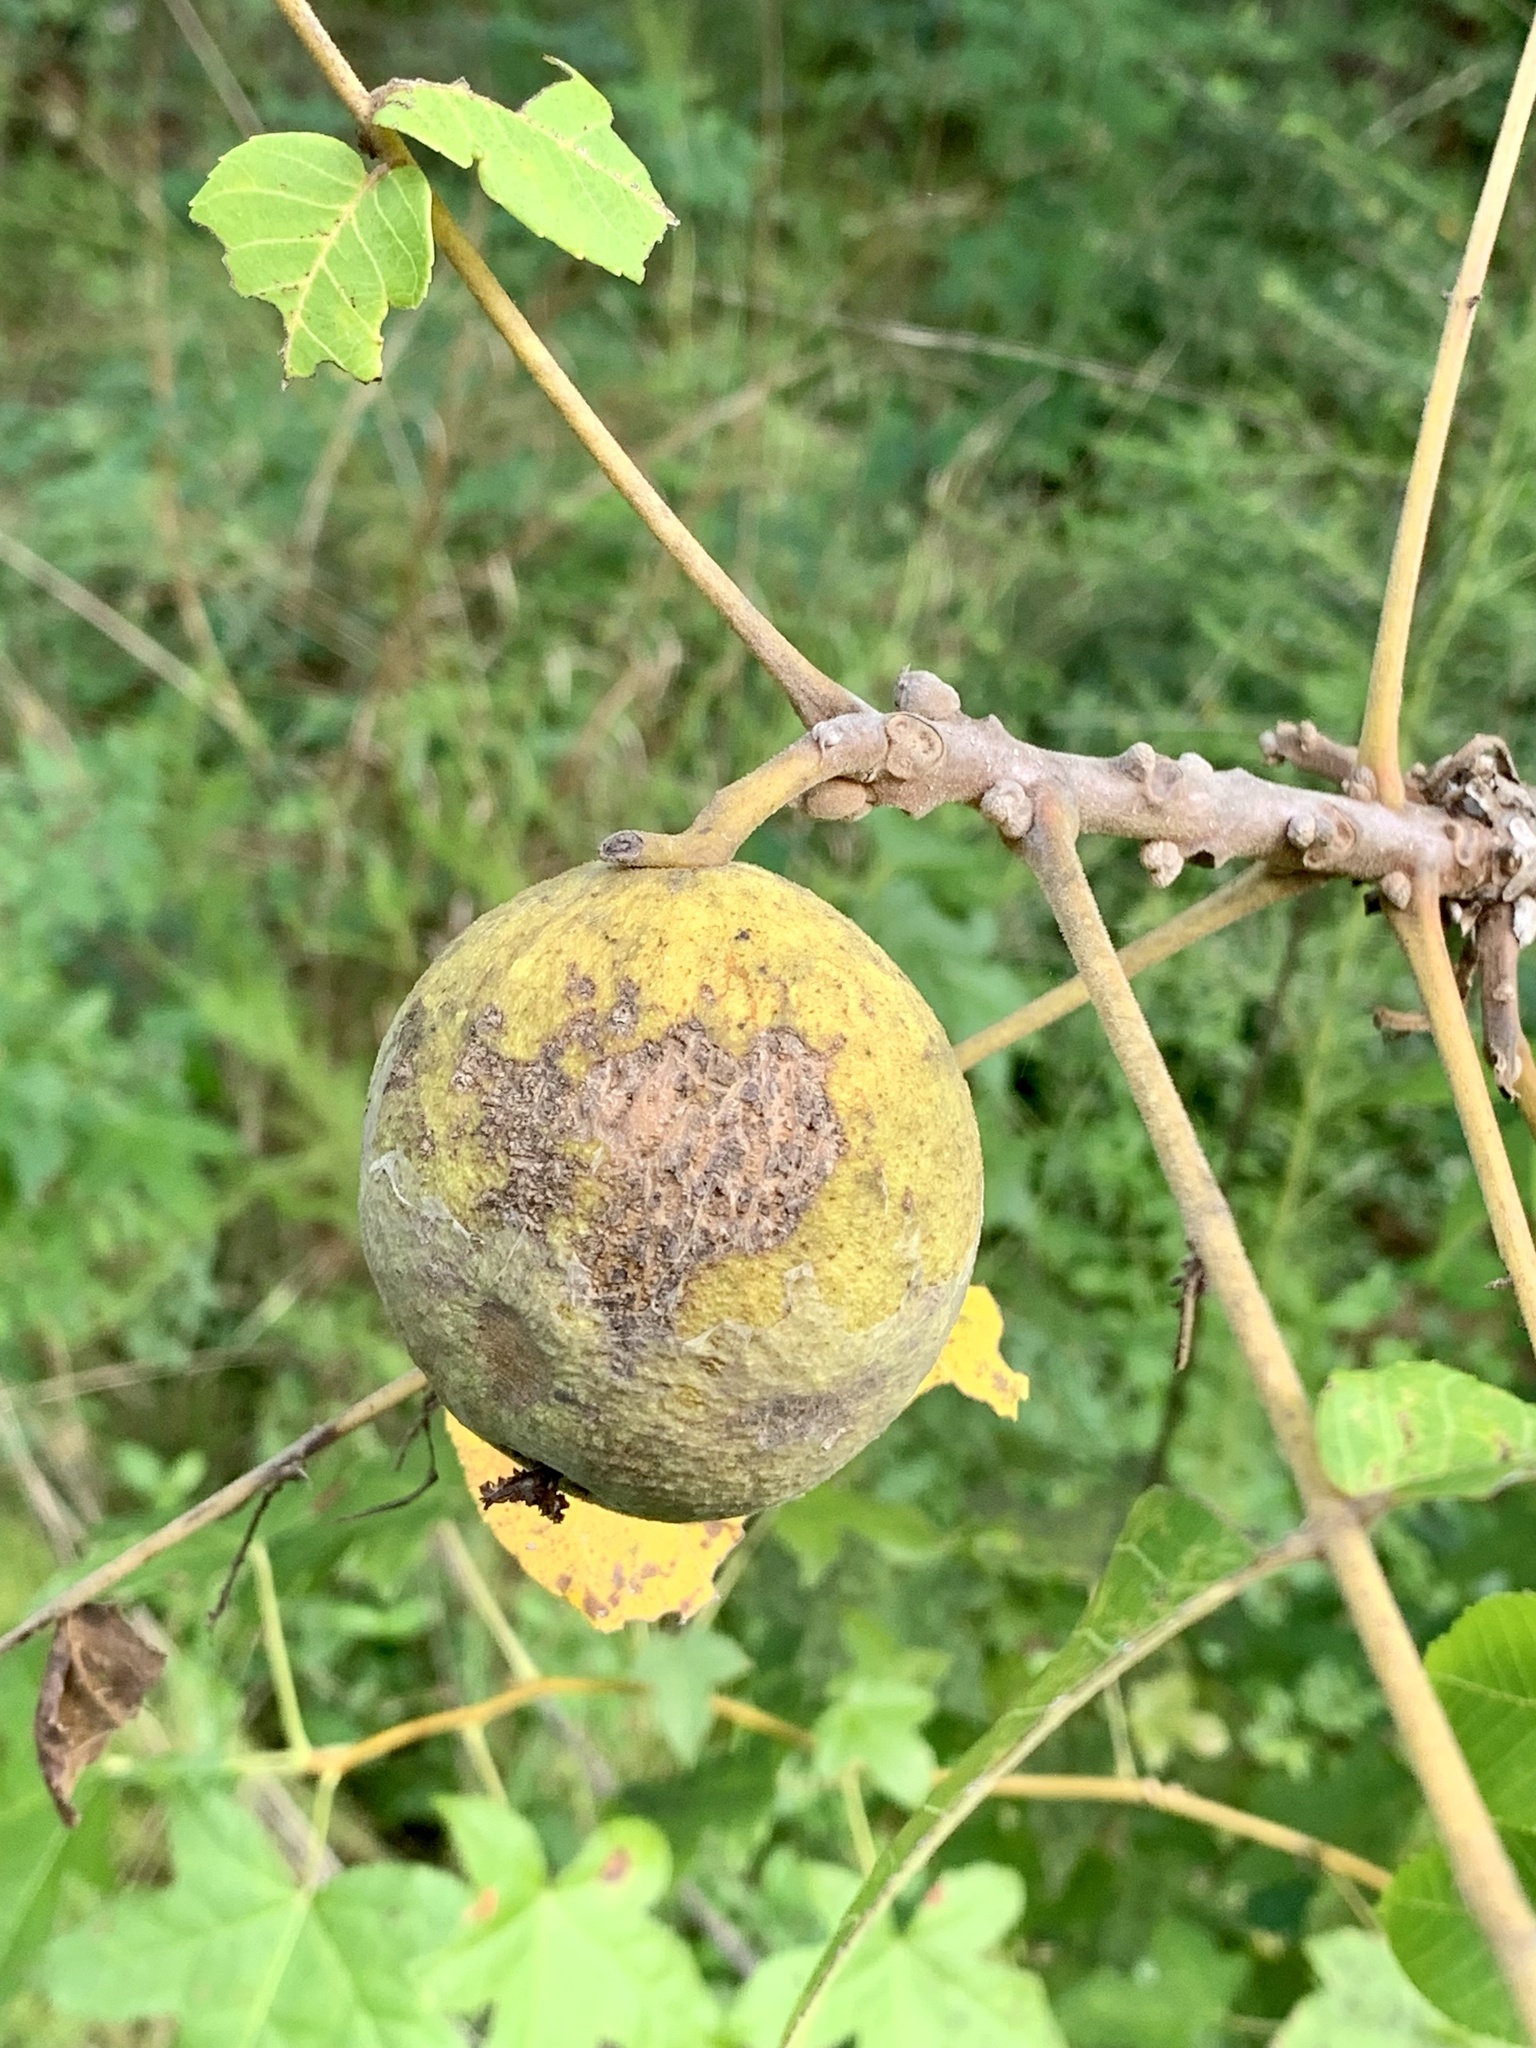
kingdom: Plantae
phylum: Tracheophyta
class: Magnoliopsida
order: Fagales
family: Juglandaceae
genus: Juglans
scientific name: Juglans nigra
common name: Black walnut
